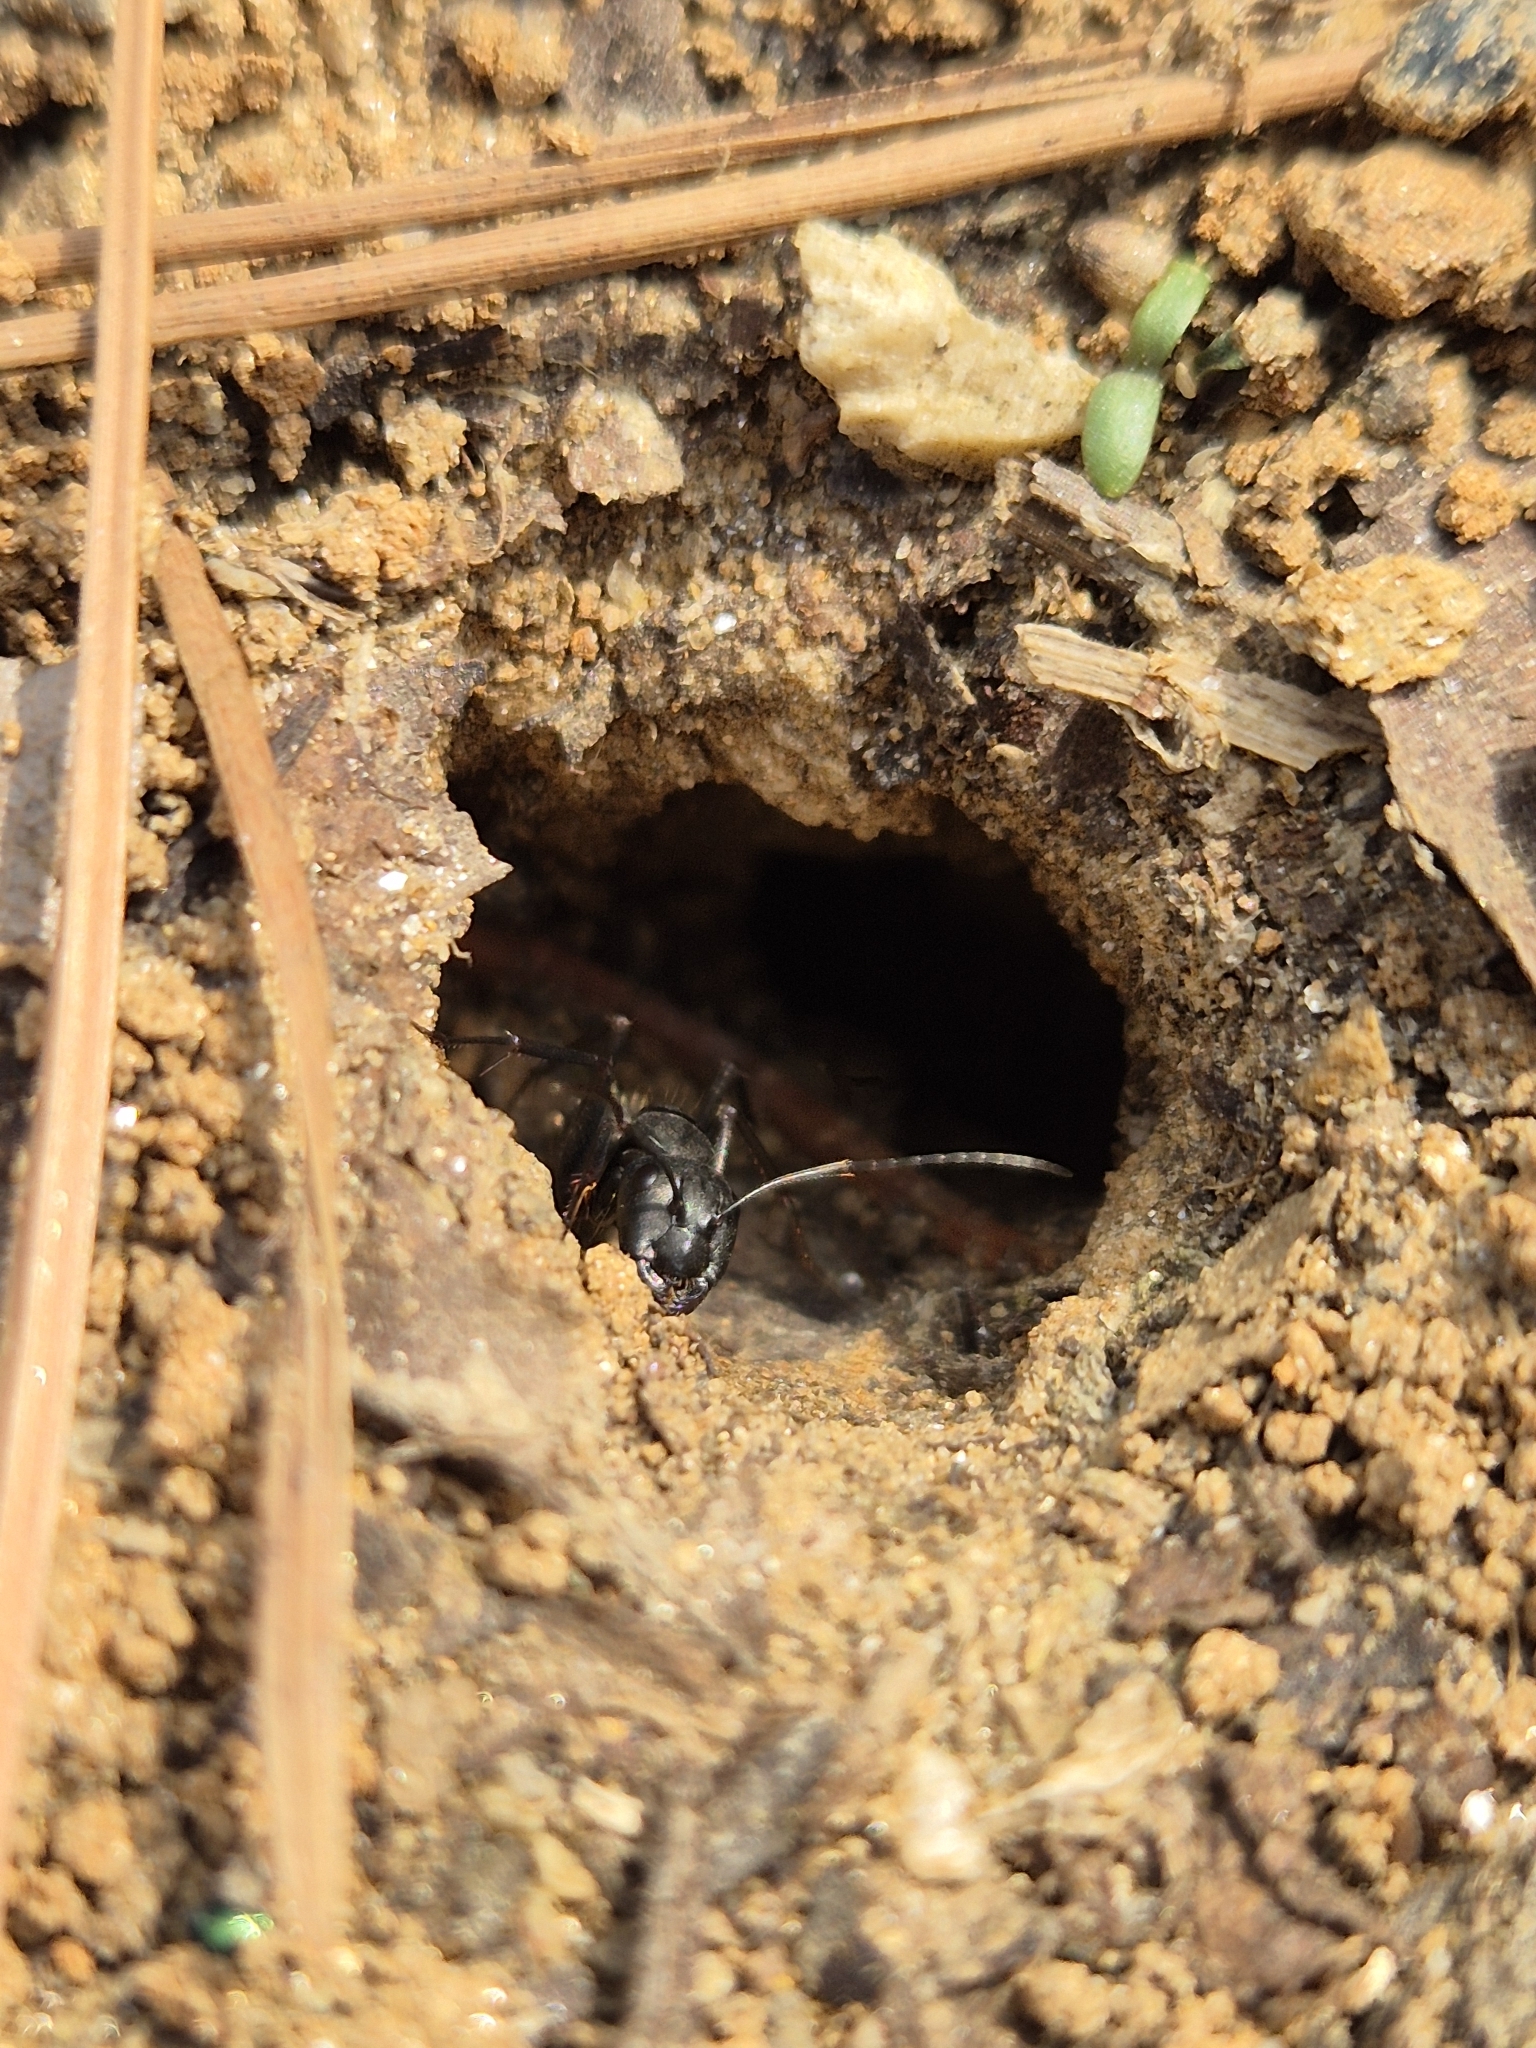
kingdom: Animalia
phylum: Arthropoda
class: Insecta
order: Hymenoptera
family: Formicidae
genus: Camponotus
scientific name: Camponotus japonicus
